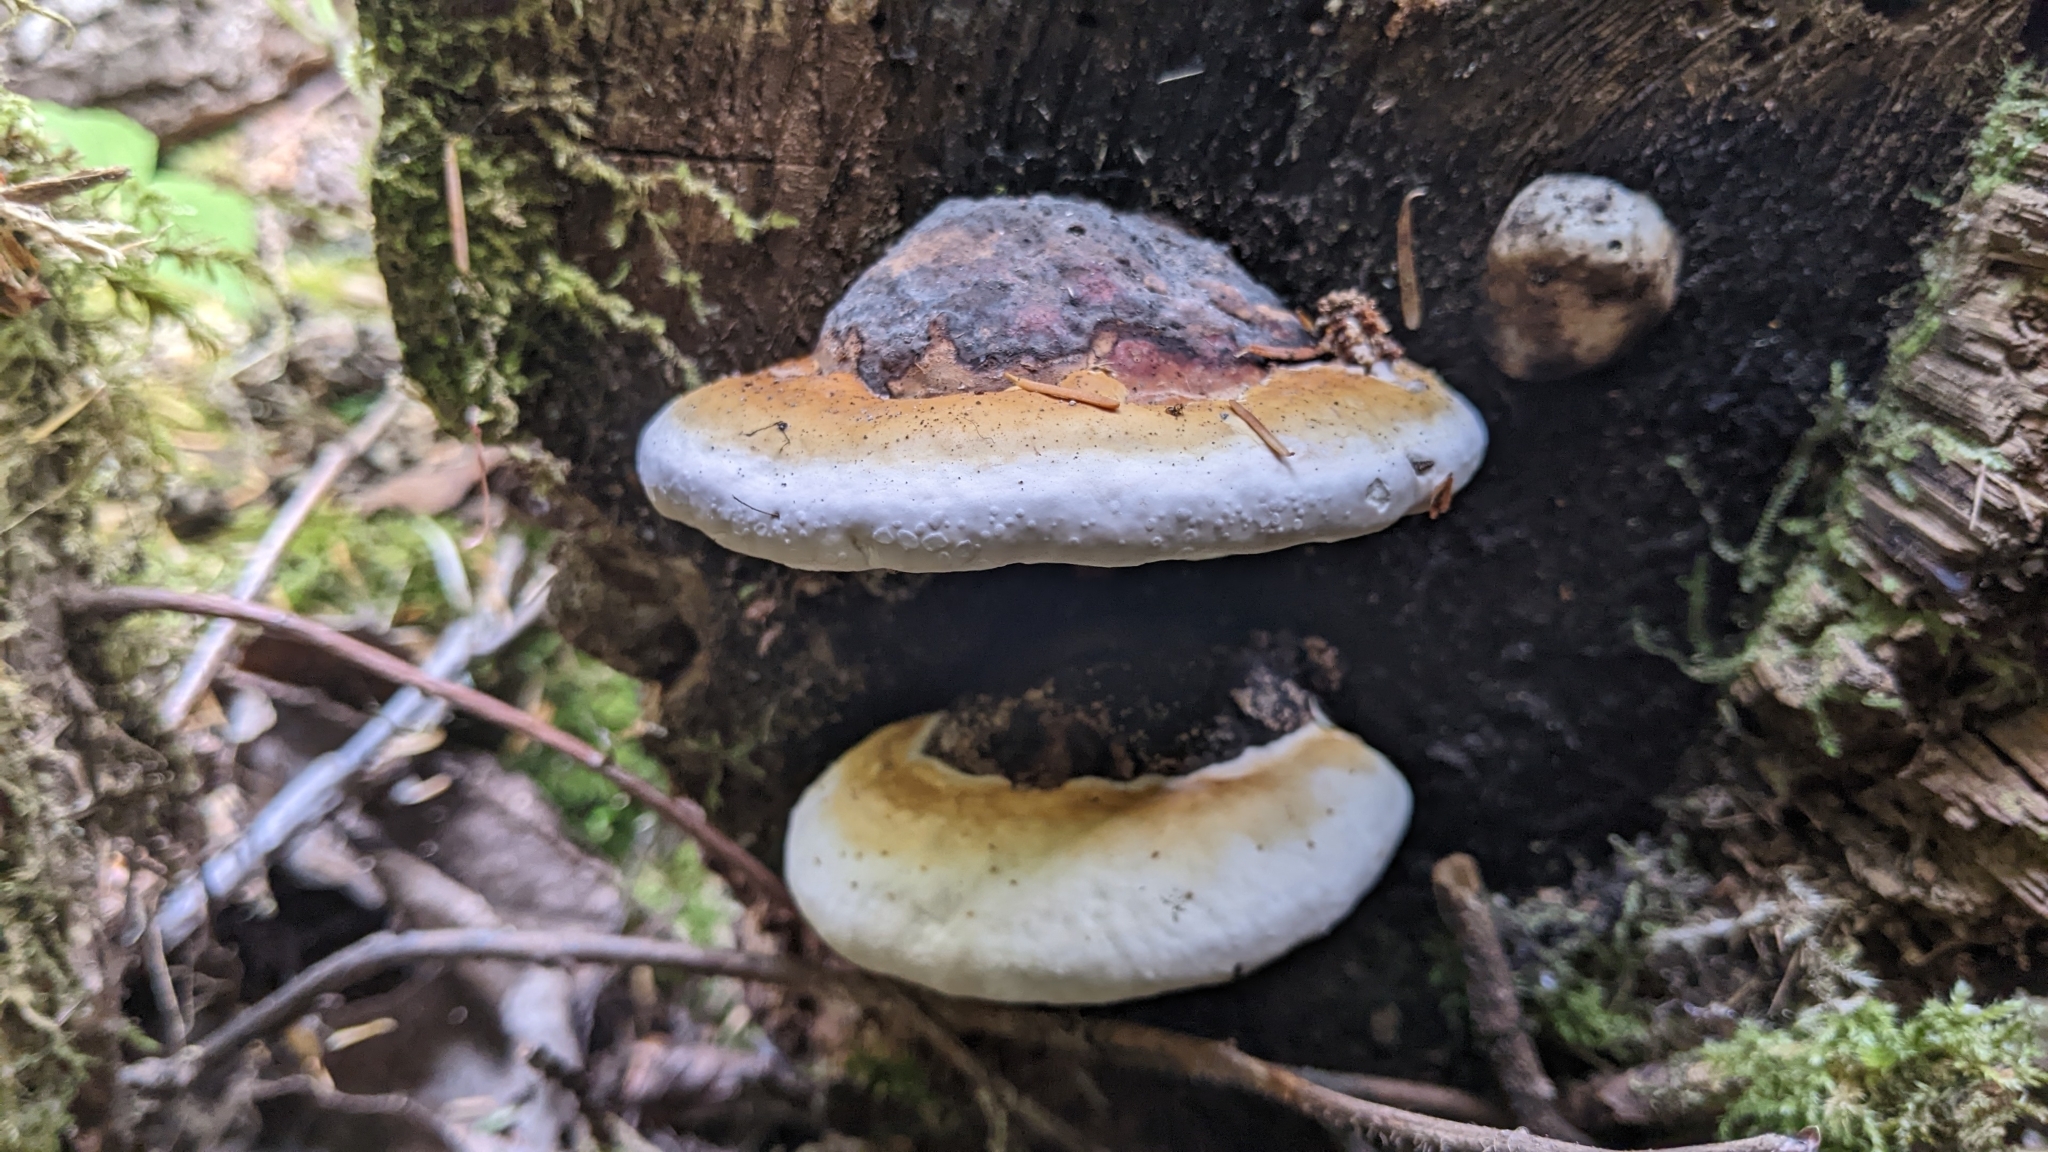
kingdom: Fungi
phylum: Basidiomycota
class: Agaricomycetes
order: Polyporales
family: Fomitopsidaceae
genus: Fomitopsis
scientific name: Fomitopsis mounceae
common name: Northern red belt
